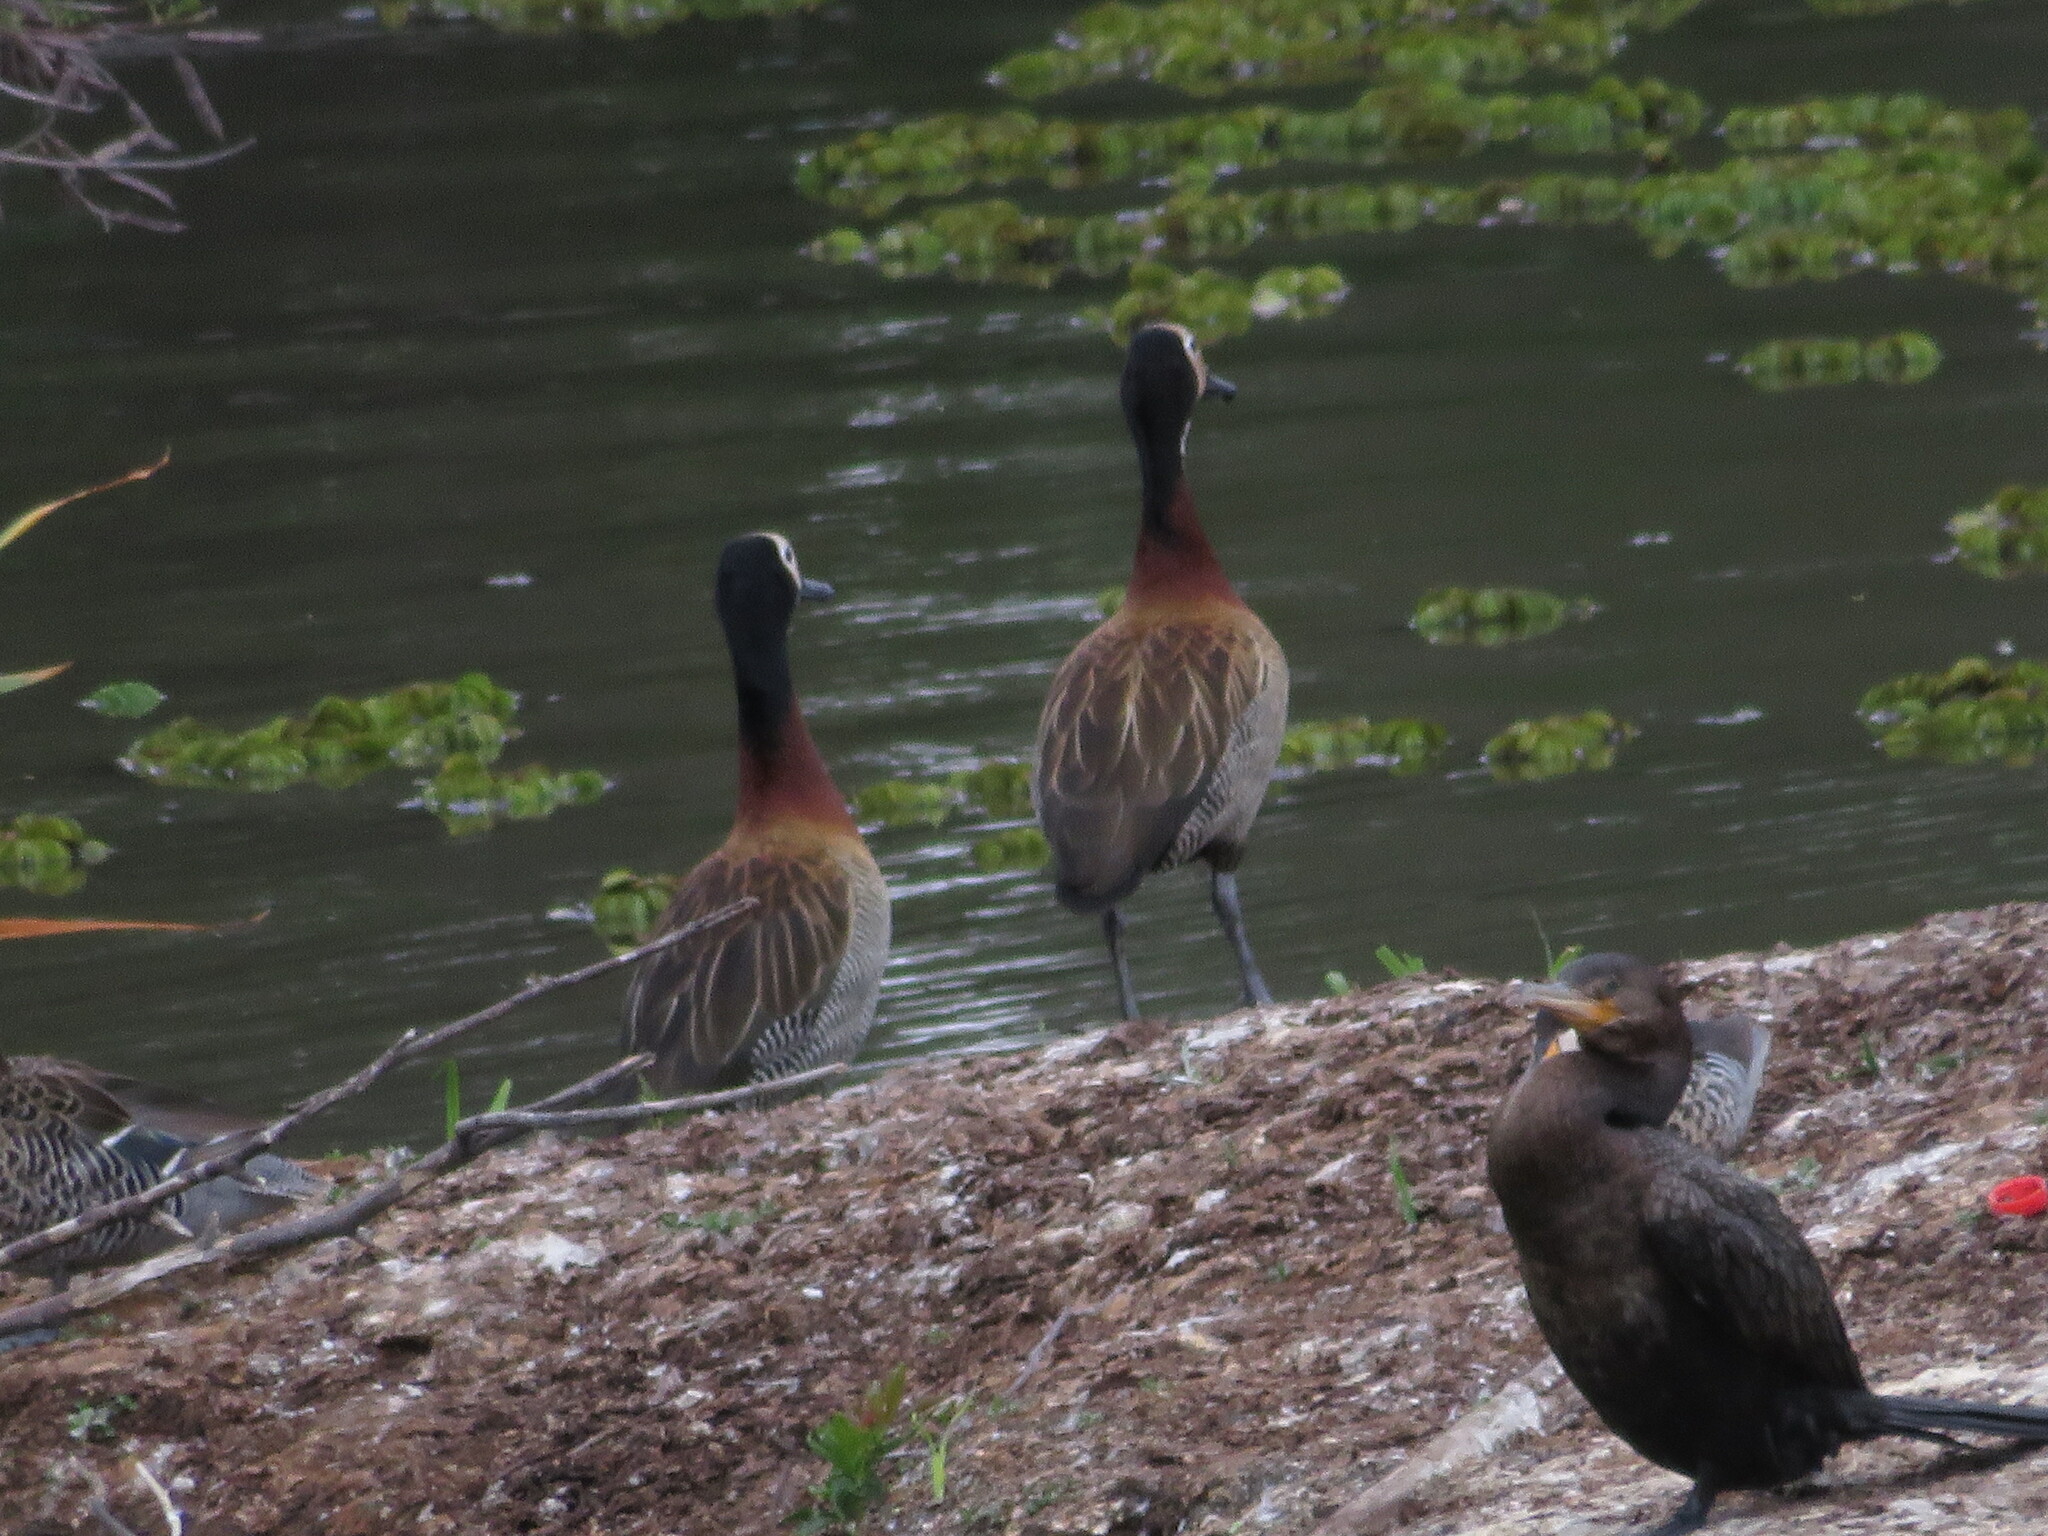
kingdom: Animalia
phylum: Chordata
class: Aves
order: Anseriformes
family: Anatidae
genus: Dendrocygna
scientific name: Dendrocygna viduata
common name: White-faced whistling duck
